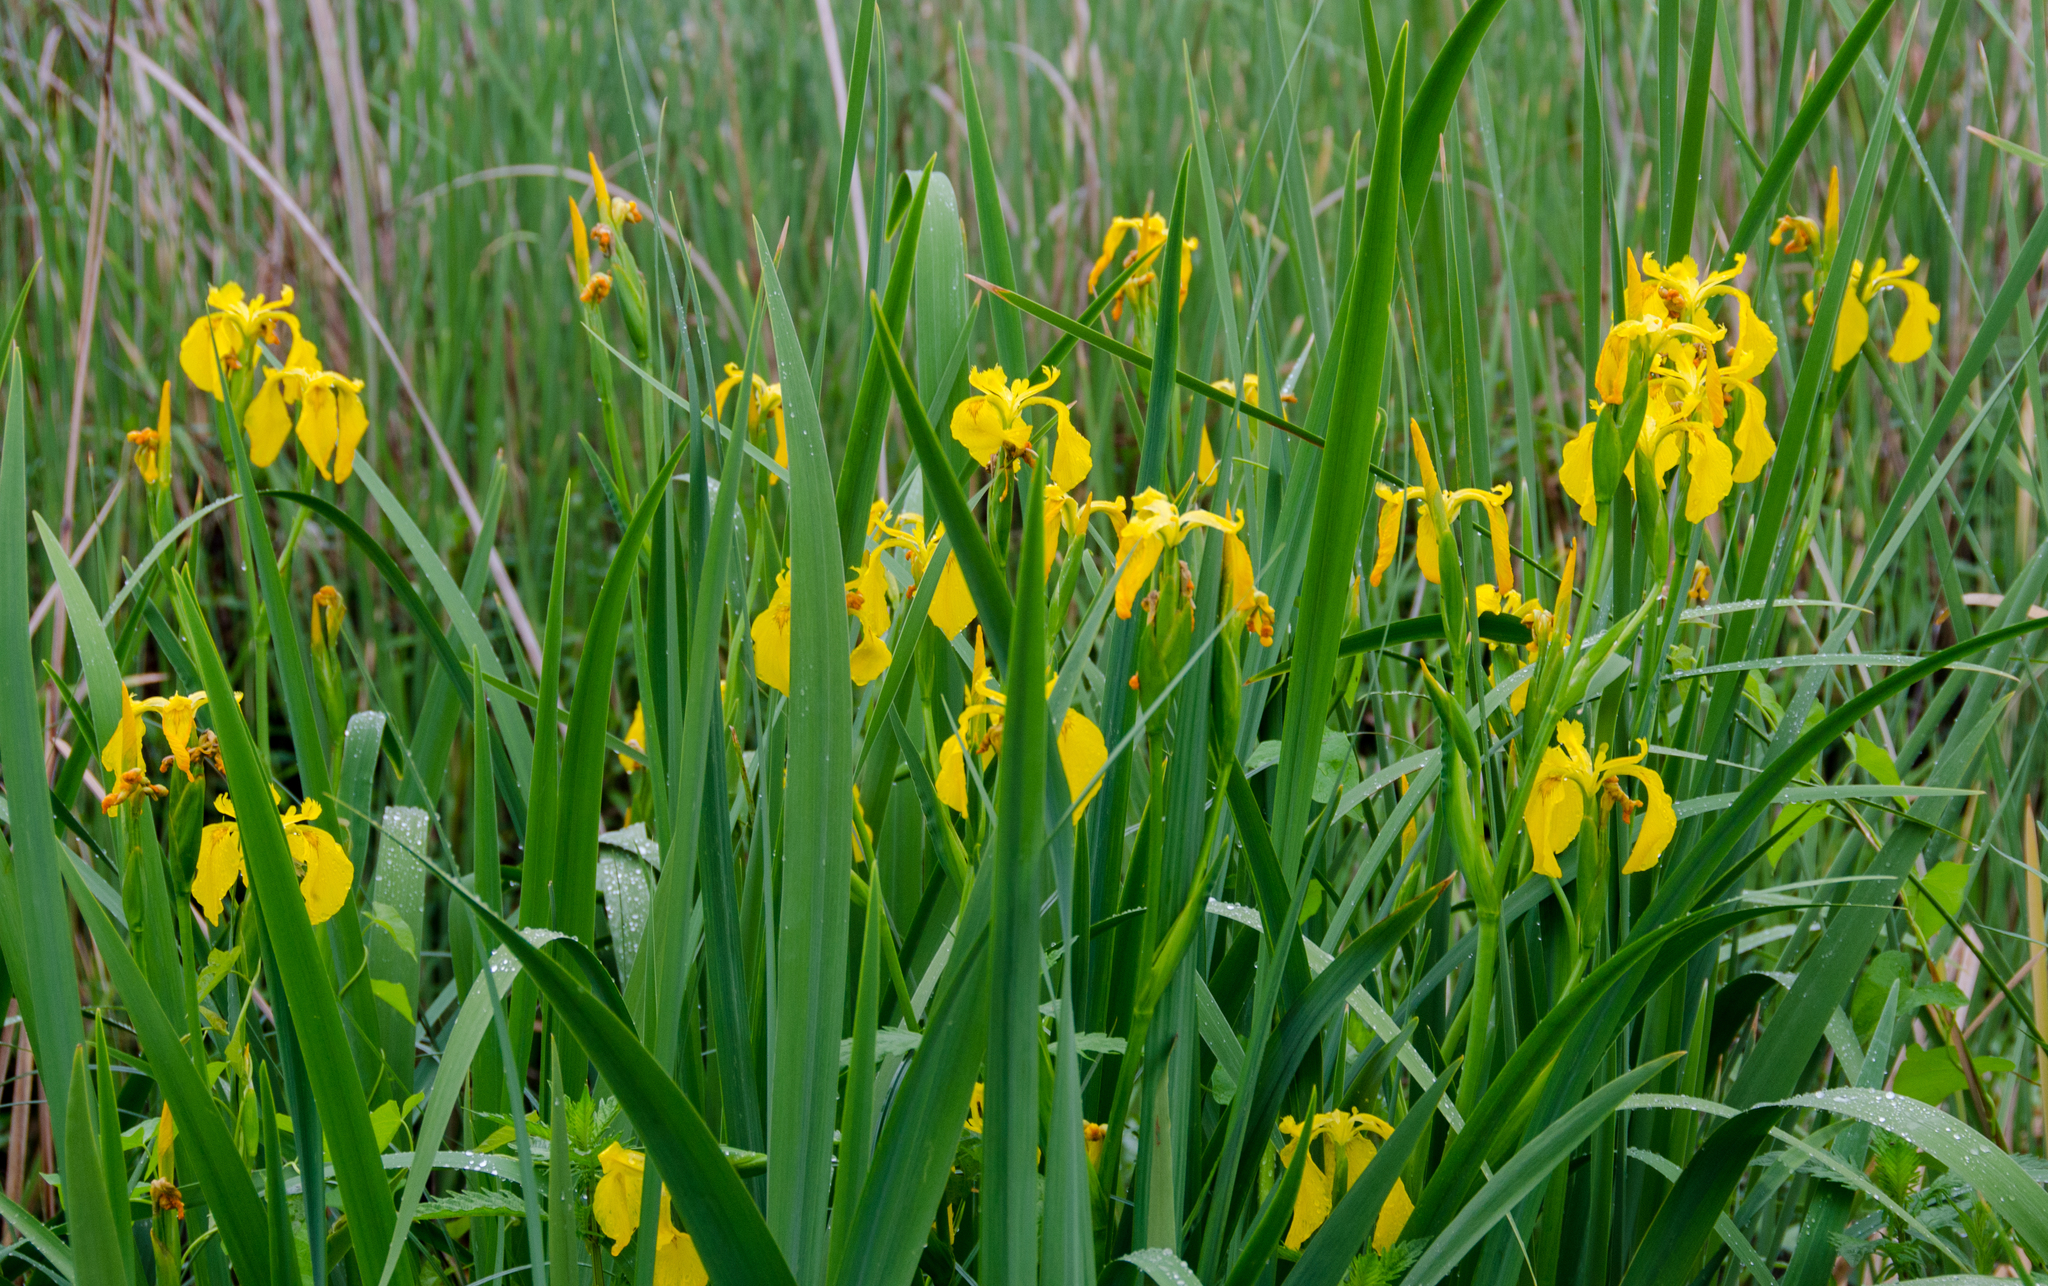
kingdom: Plantae
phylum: Tracheophyta
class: Liliopsida
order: Asparagales
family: Iridaceae
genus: Iris
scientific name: Iris pseudacorus
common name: Yellow flag
